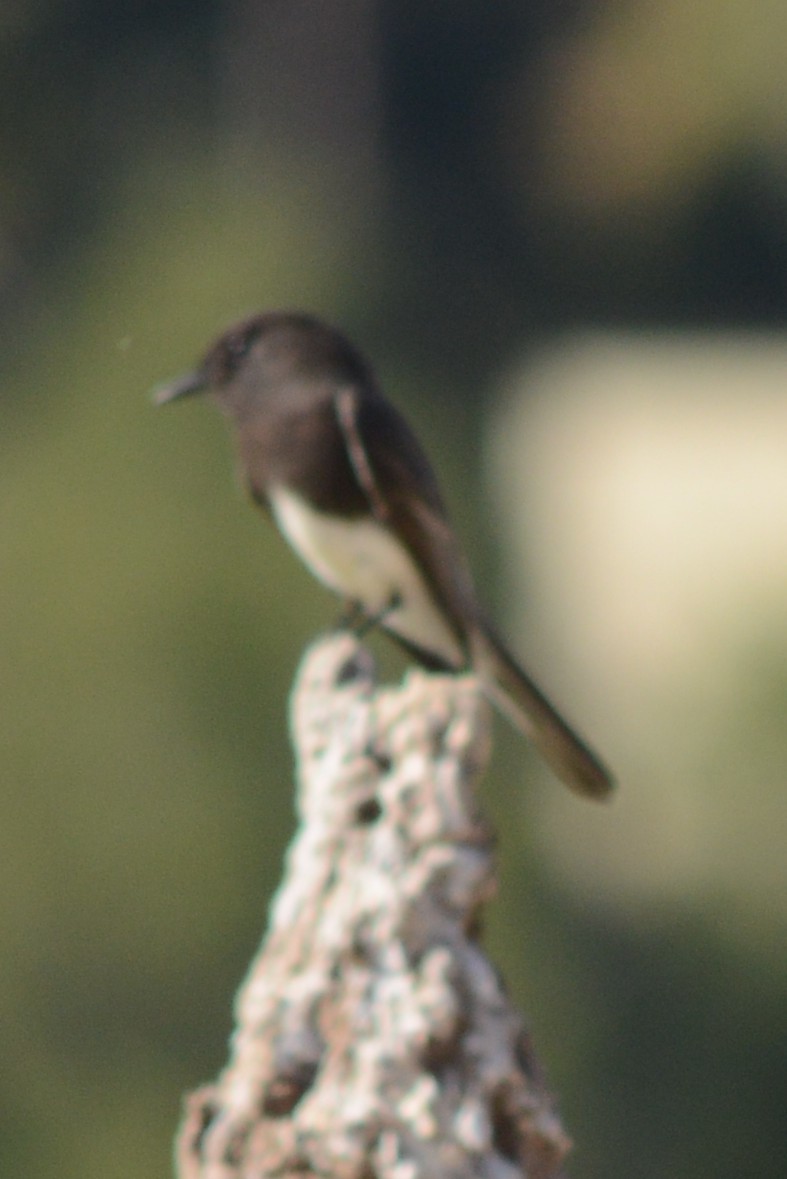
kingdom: Animalia
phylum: Chordata
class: Aves
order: Passeriformes
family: Tyrannidae
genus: Sayornis
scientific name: Sayornis nigricans
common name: Black phoebe
